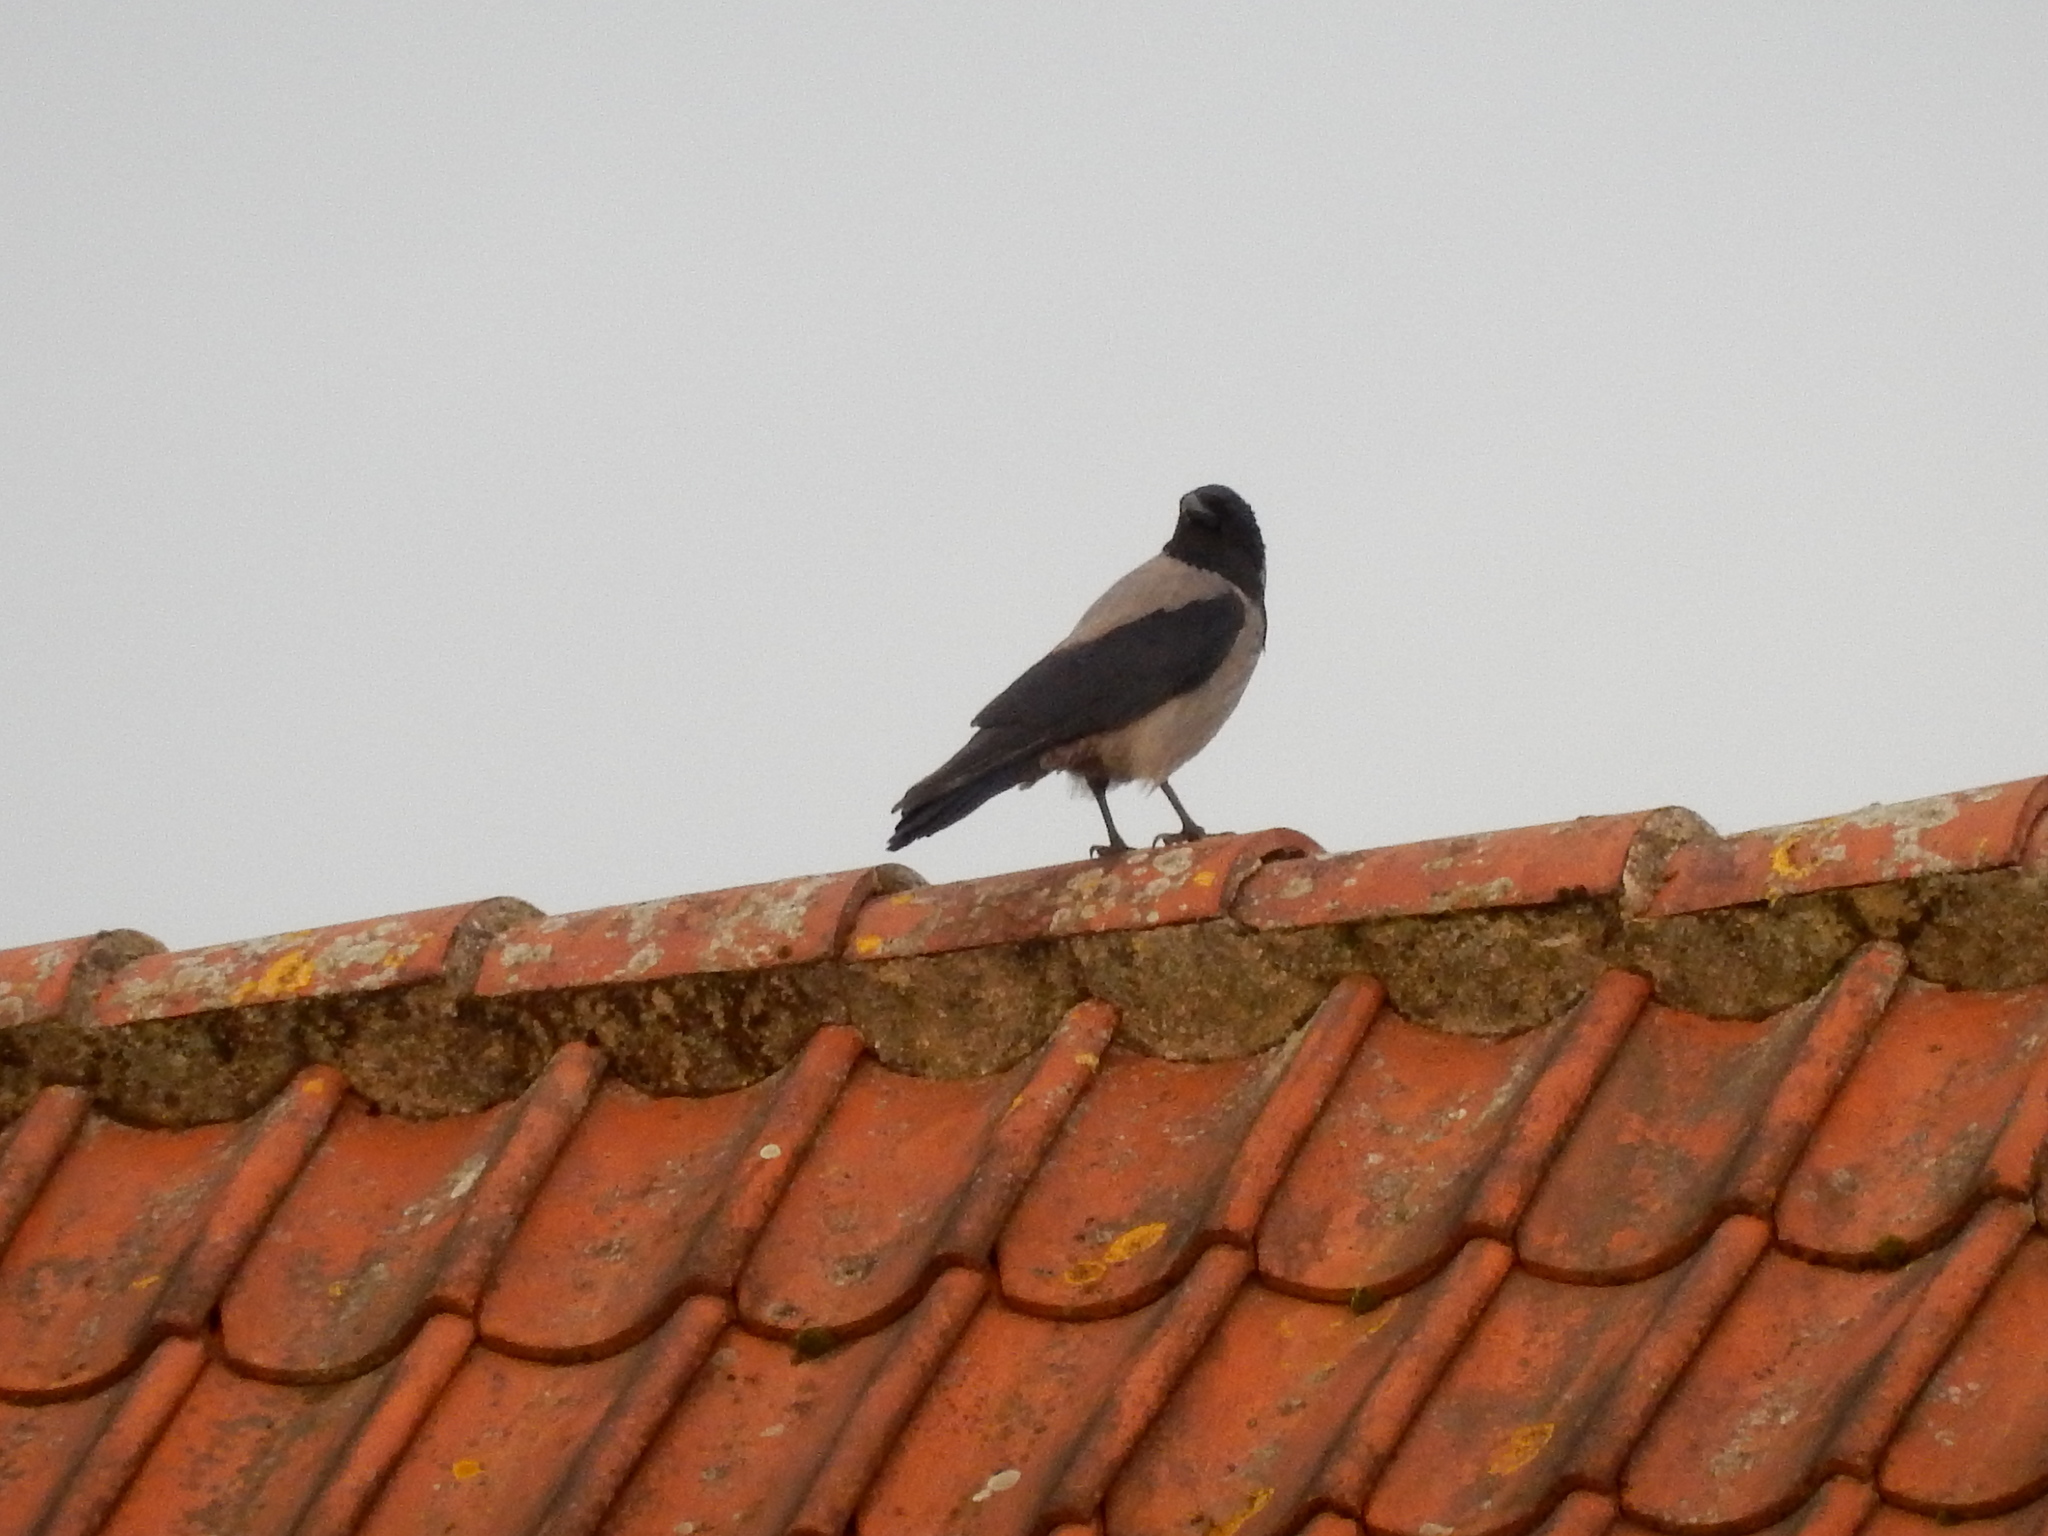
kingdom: Animalia
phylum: Chordata
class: Aves
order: Passeriformes
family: Corvidae
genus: Corvus
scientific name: Corvus cornix
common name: Hooded crow
